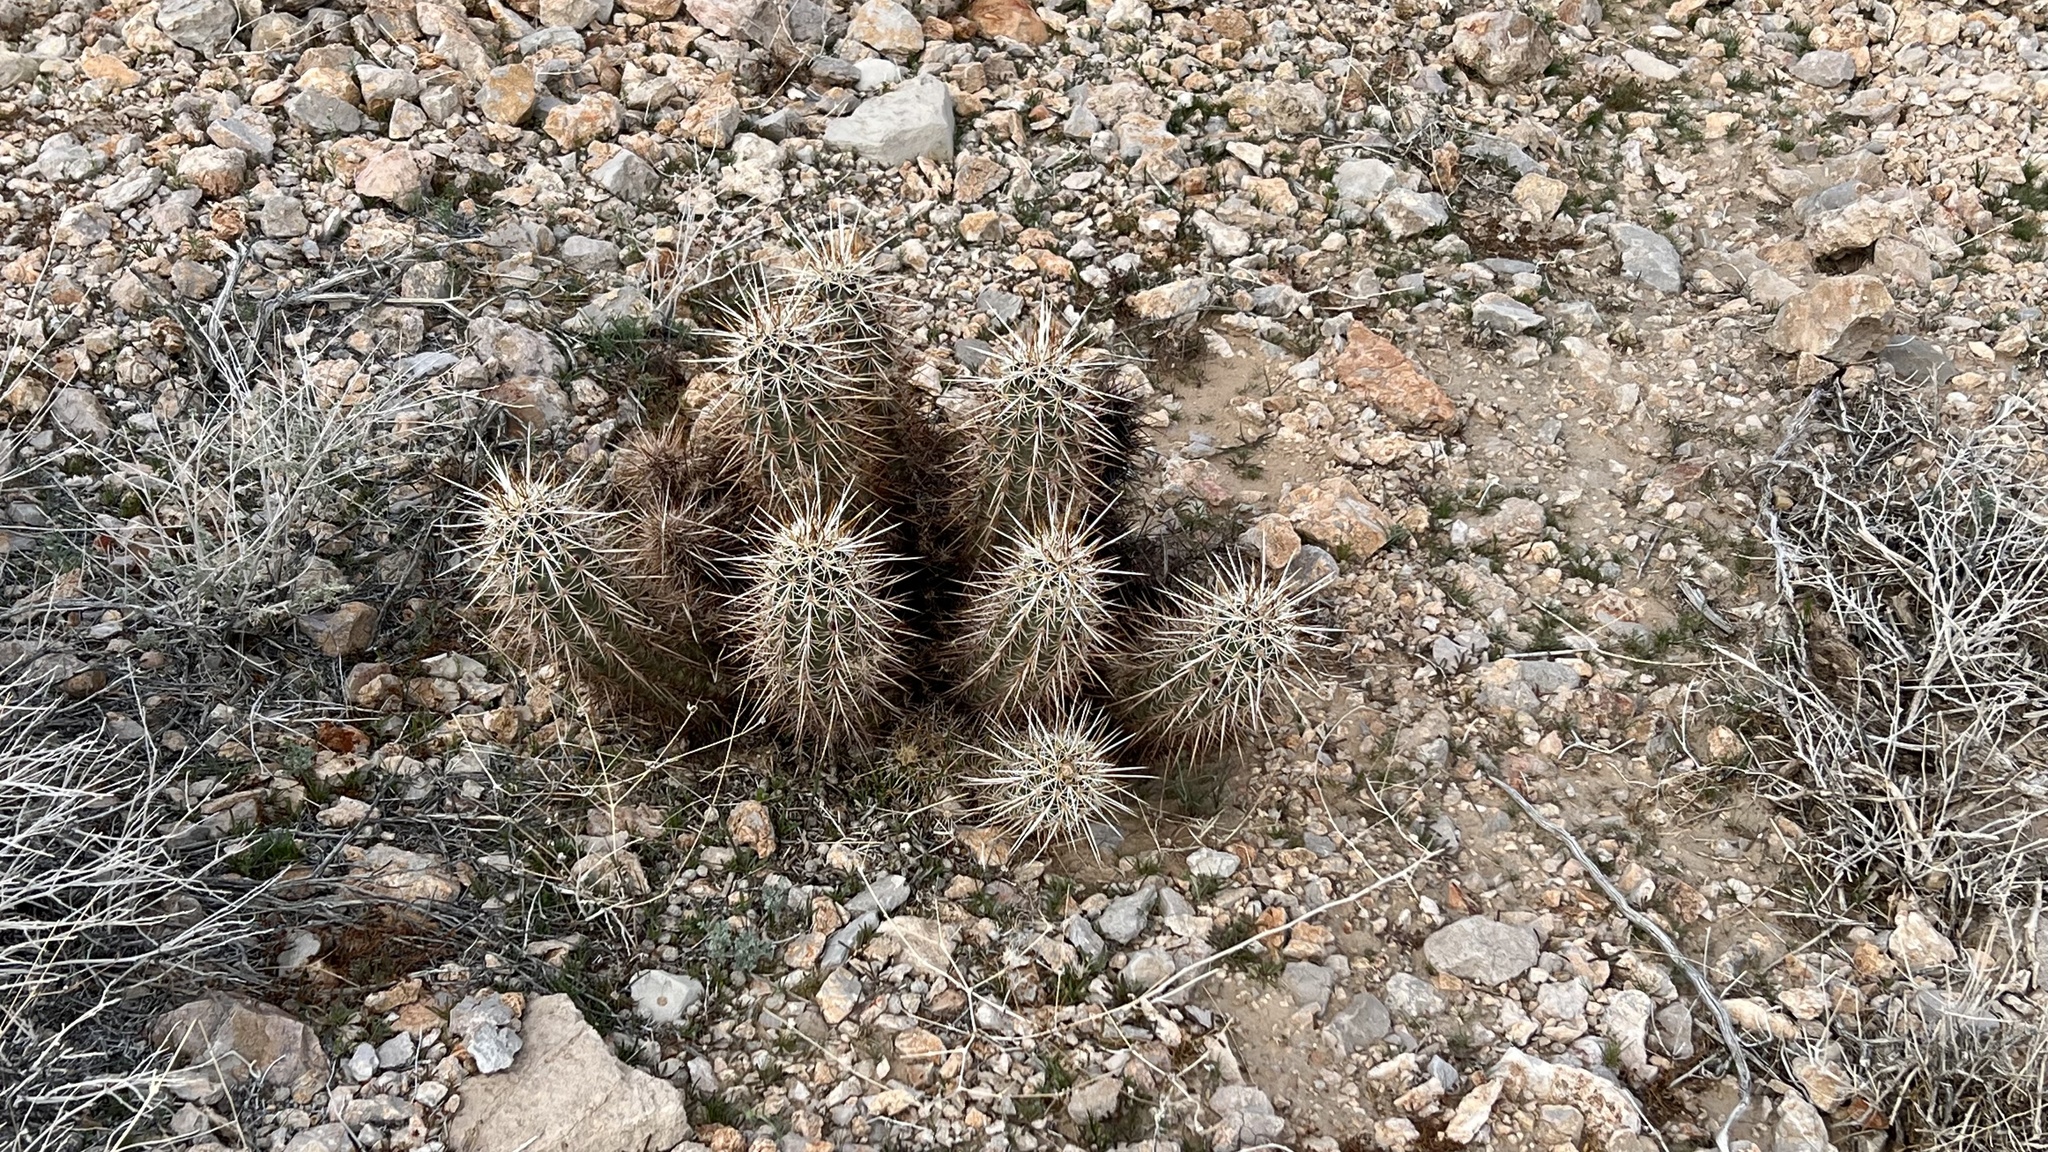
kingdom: Plantae
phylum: Tracheophyta
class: Magnoliopsida
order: Caryophyllales
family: Cactaceae
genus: Echinocereus
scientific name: Echinocereus engelmannii
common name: Engelmann's hedgehog cactus
